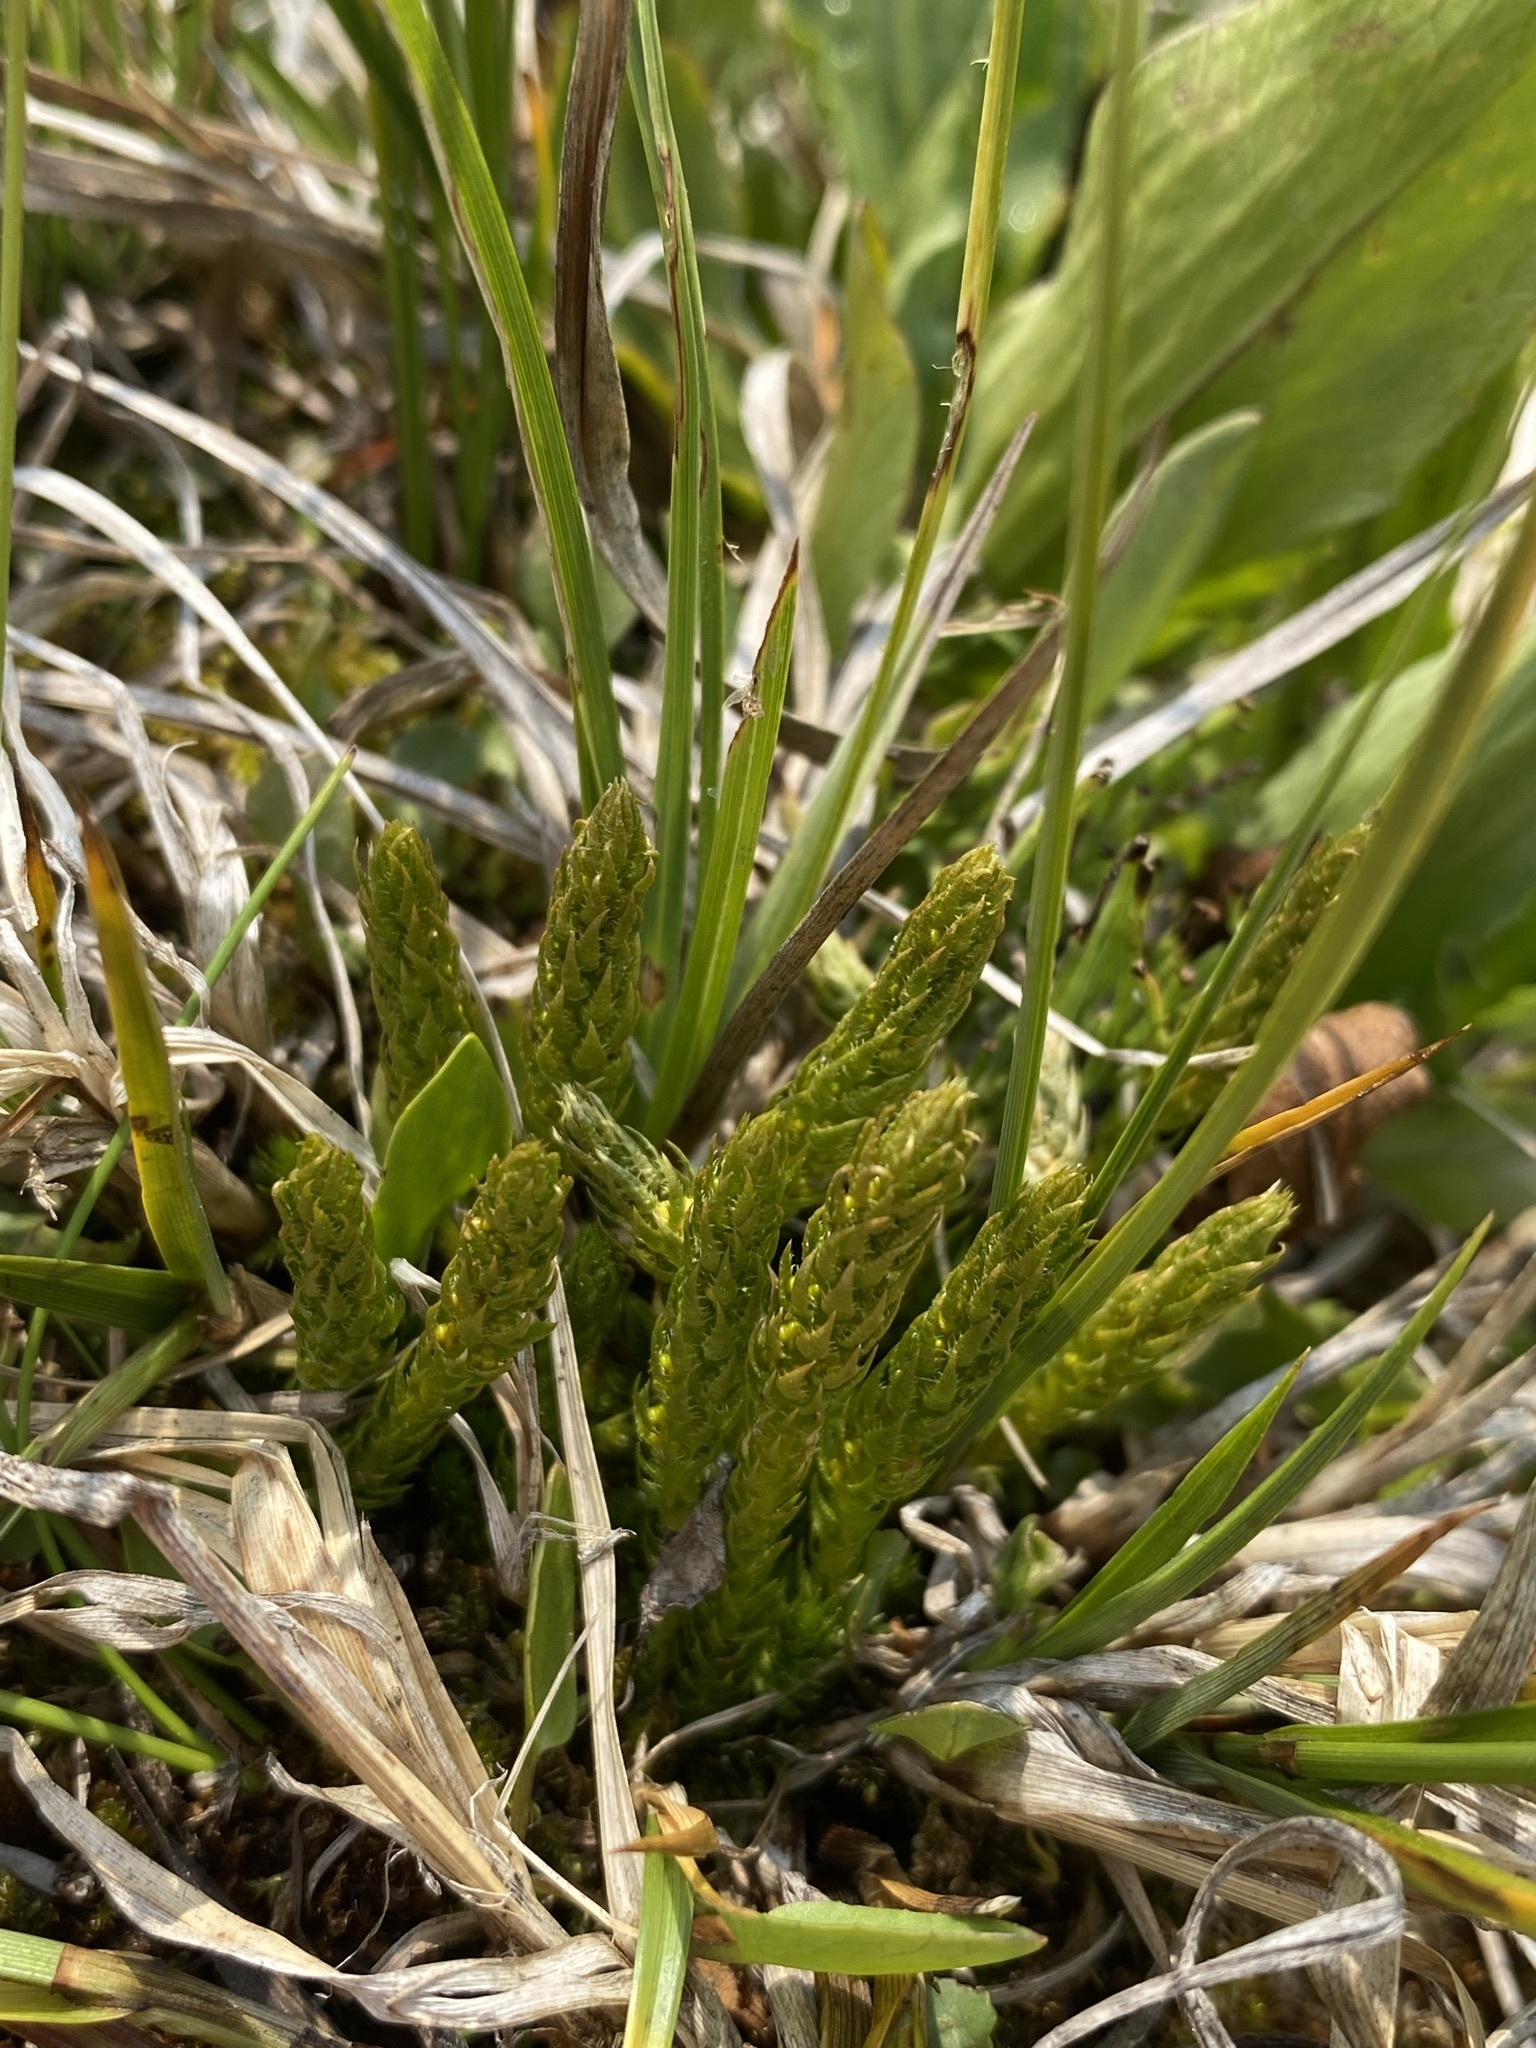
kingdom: Plantae
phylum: Tracheophyta
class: Lycopodiopsida
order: Selaginellales
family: Selaginellaceae
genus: Selaginella
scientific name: Selaginella selaginoides
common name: Prickly mountain-moss
